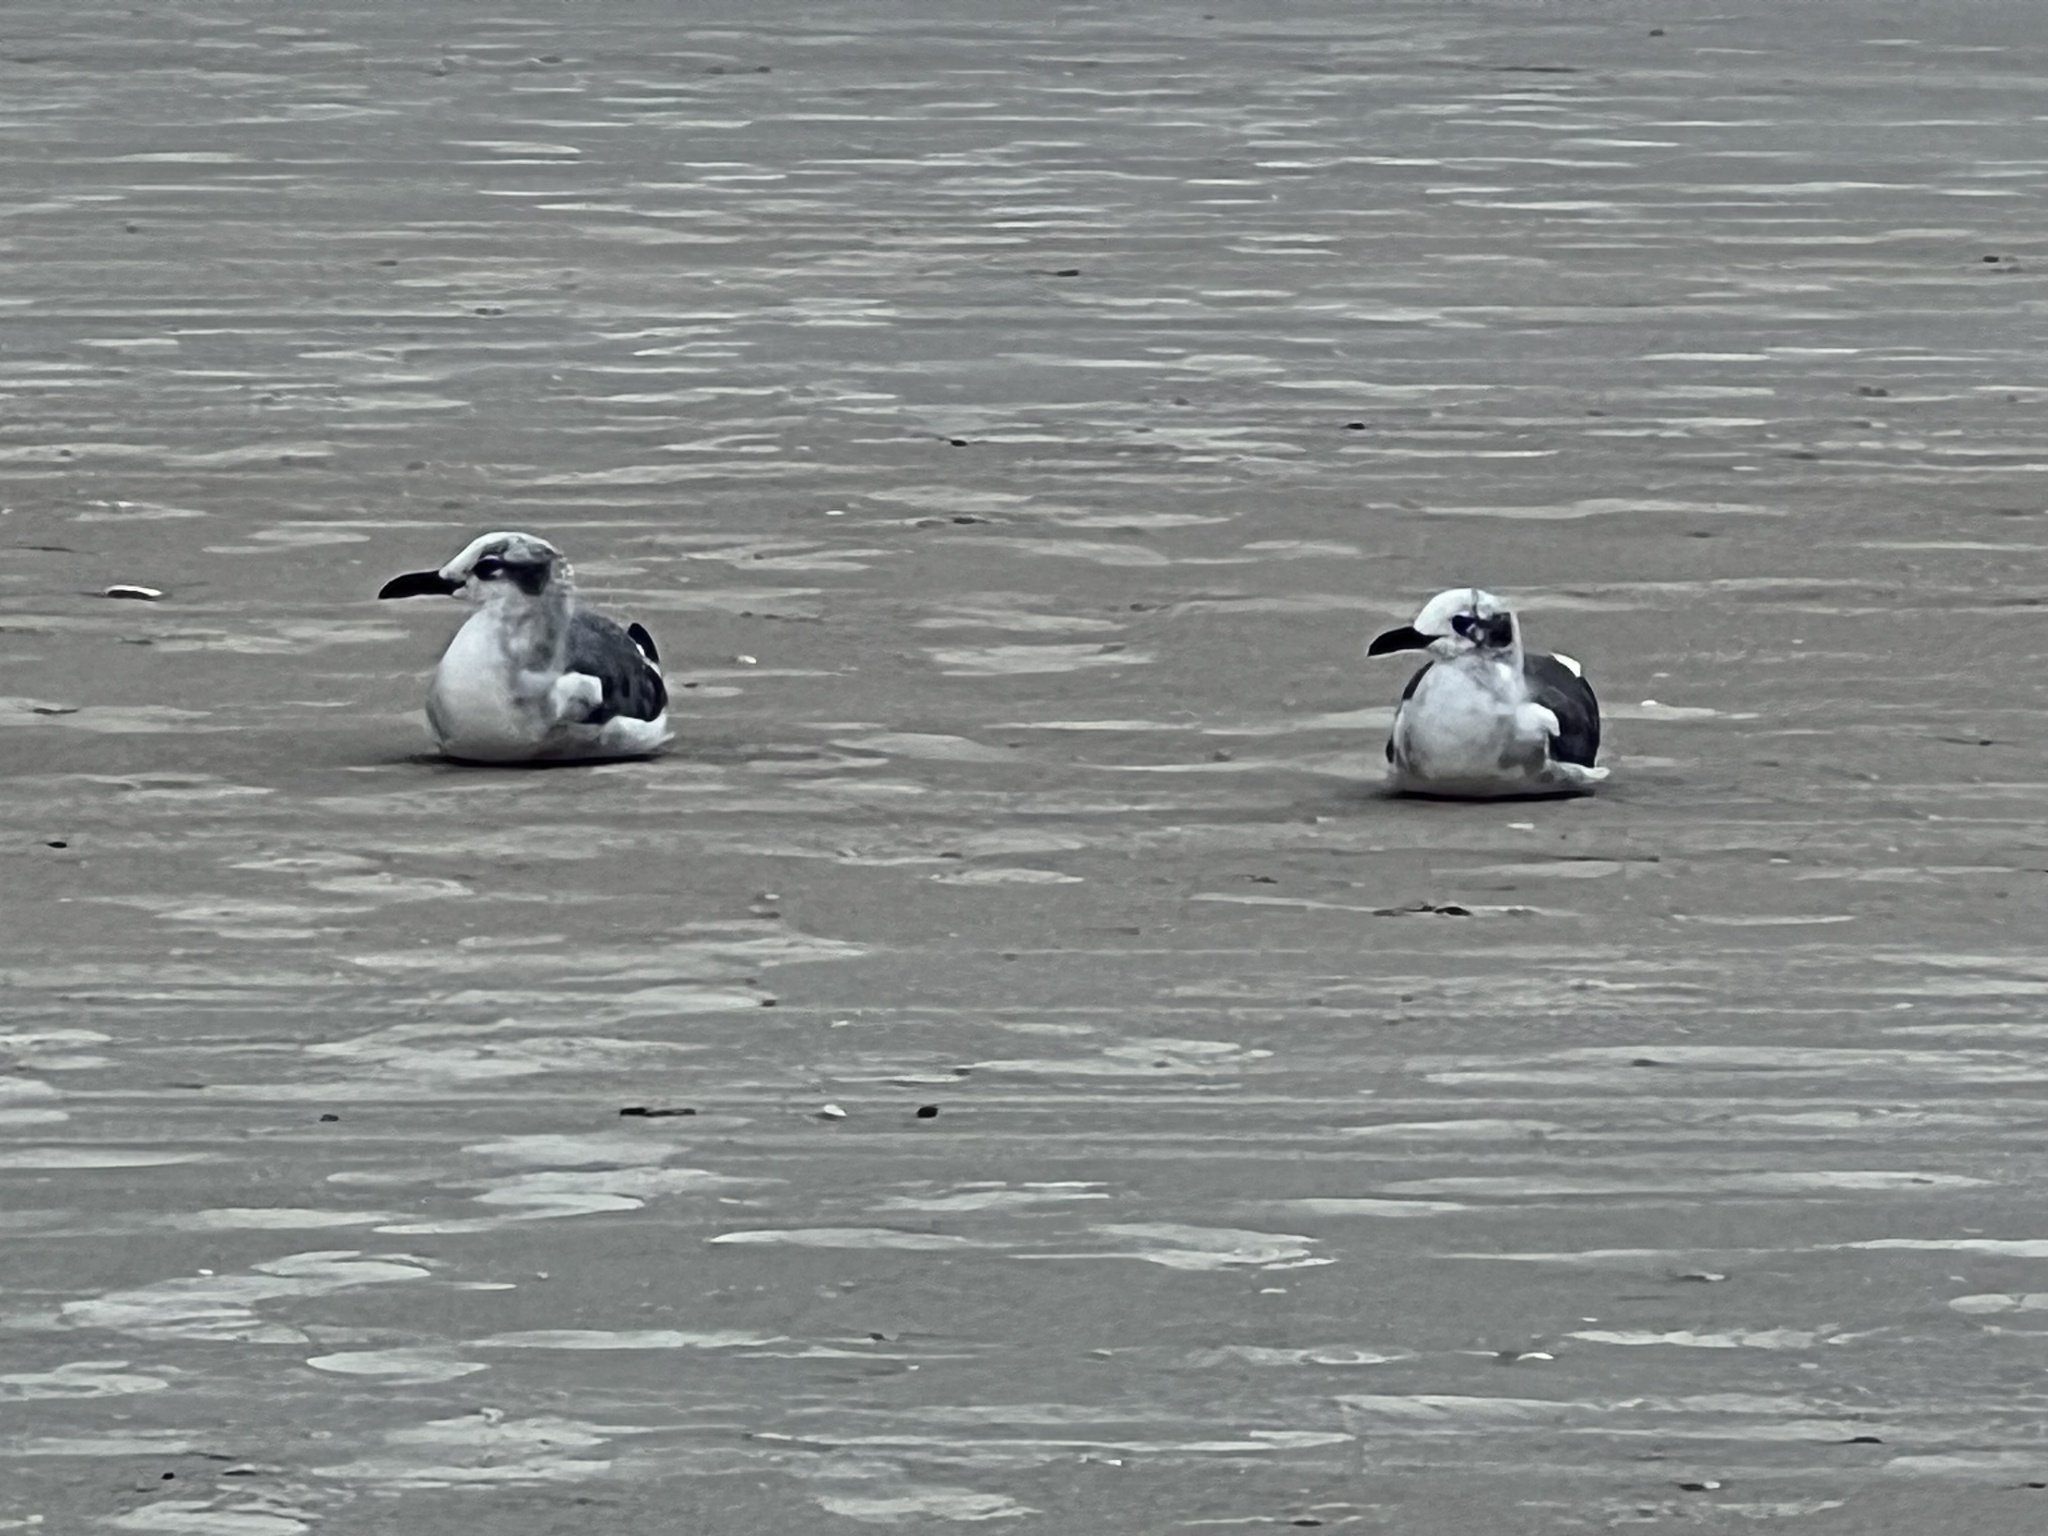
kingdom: Animalia
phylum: Chordata
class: Aves
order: Charadriiformes
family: Laridae
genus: Leucophaeus
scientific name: Leucophaeus atricilla
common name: Laughing gull
